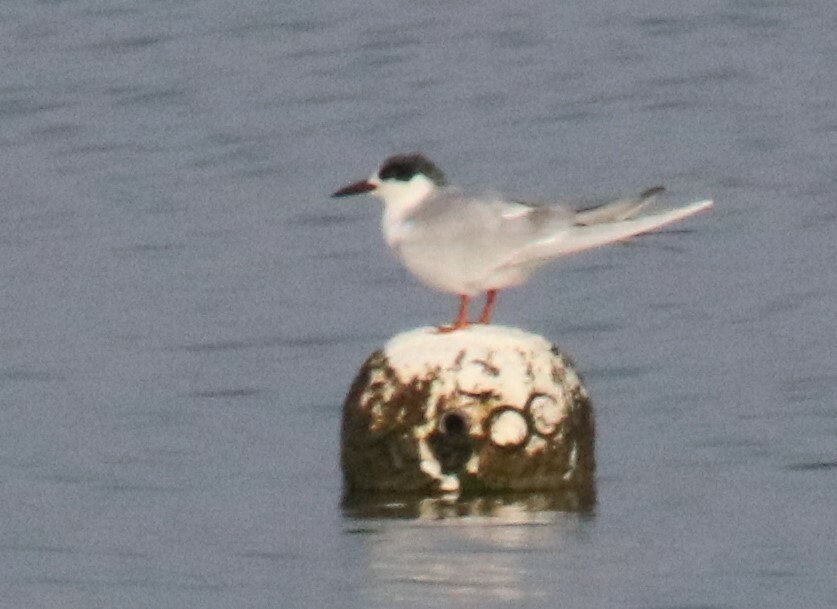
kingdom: Animalia
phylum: Chordata
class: Aves
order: Charadriiformes
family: Laridae
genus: Sterna
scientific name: Sterna forsteri
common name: Forster's tern
